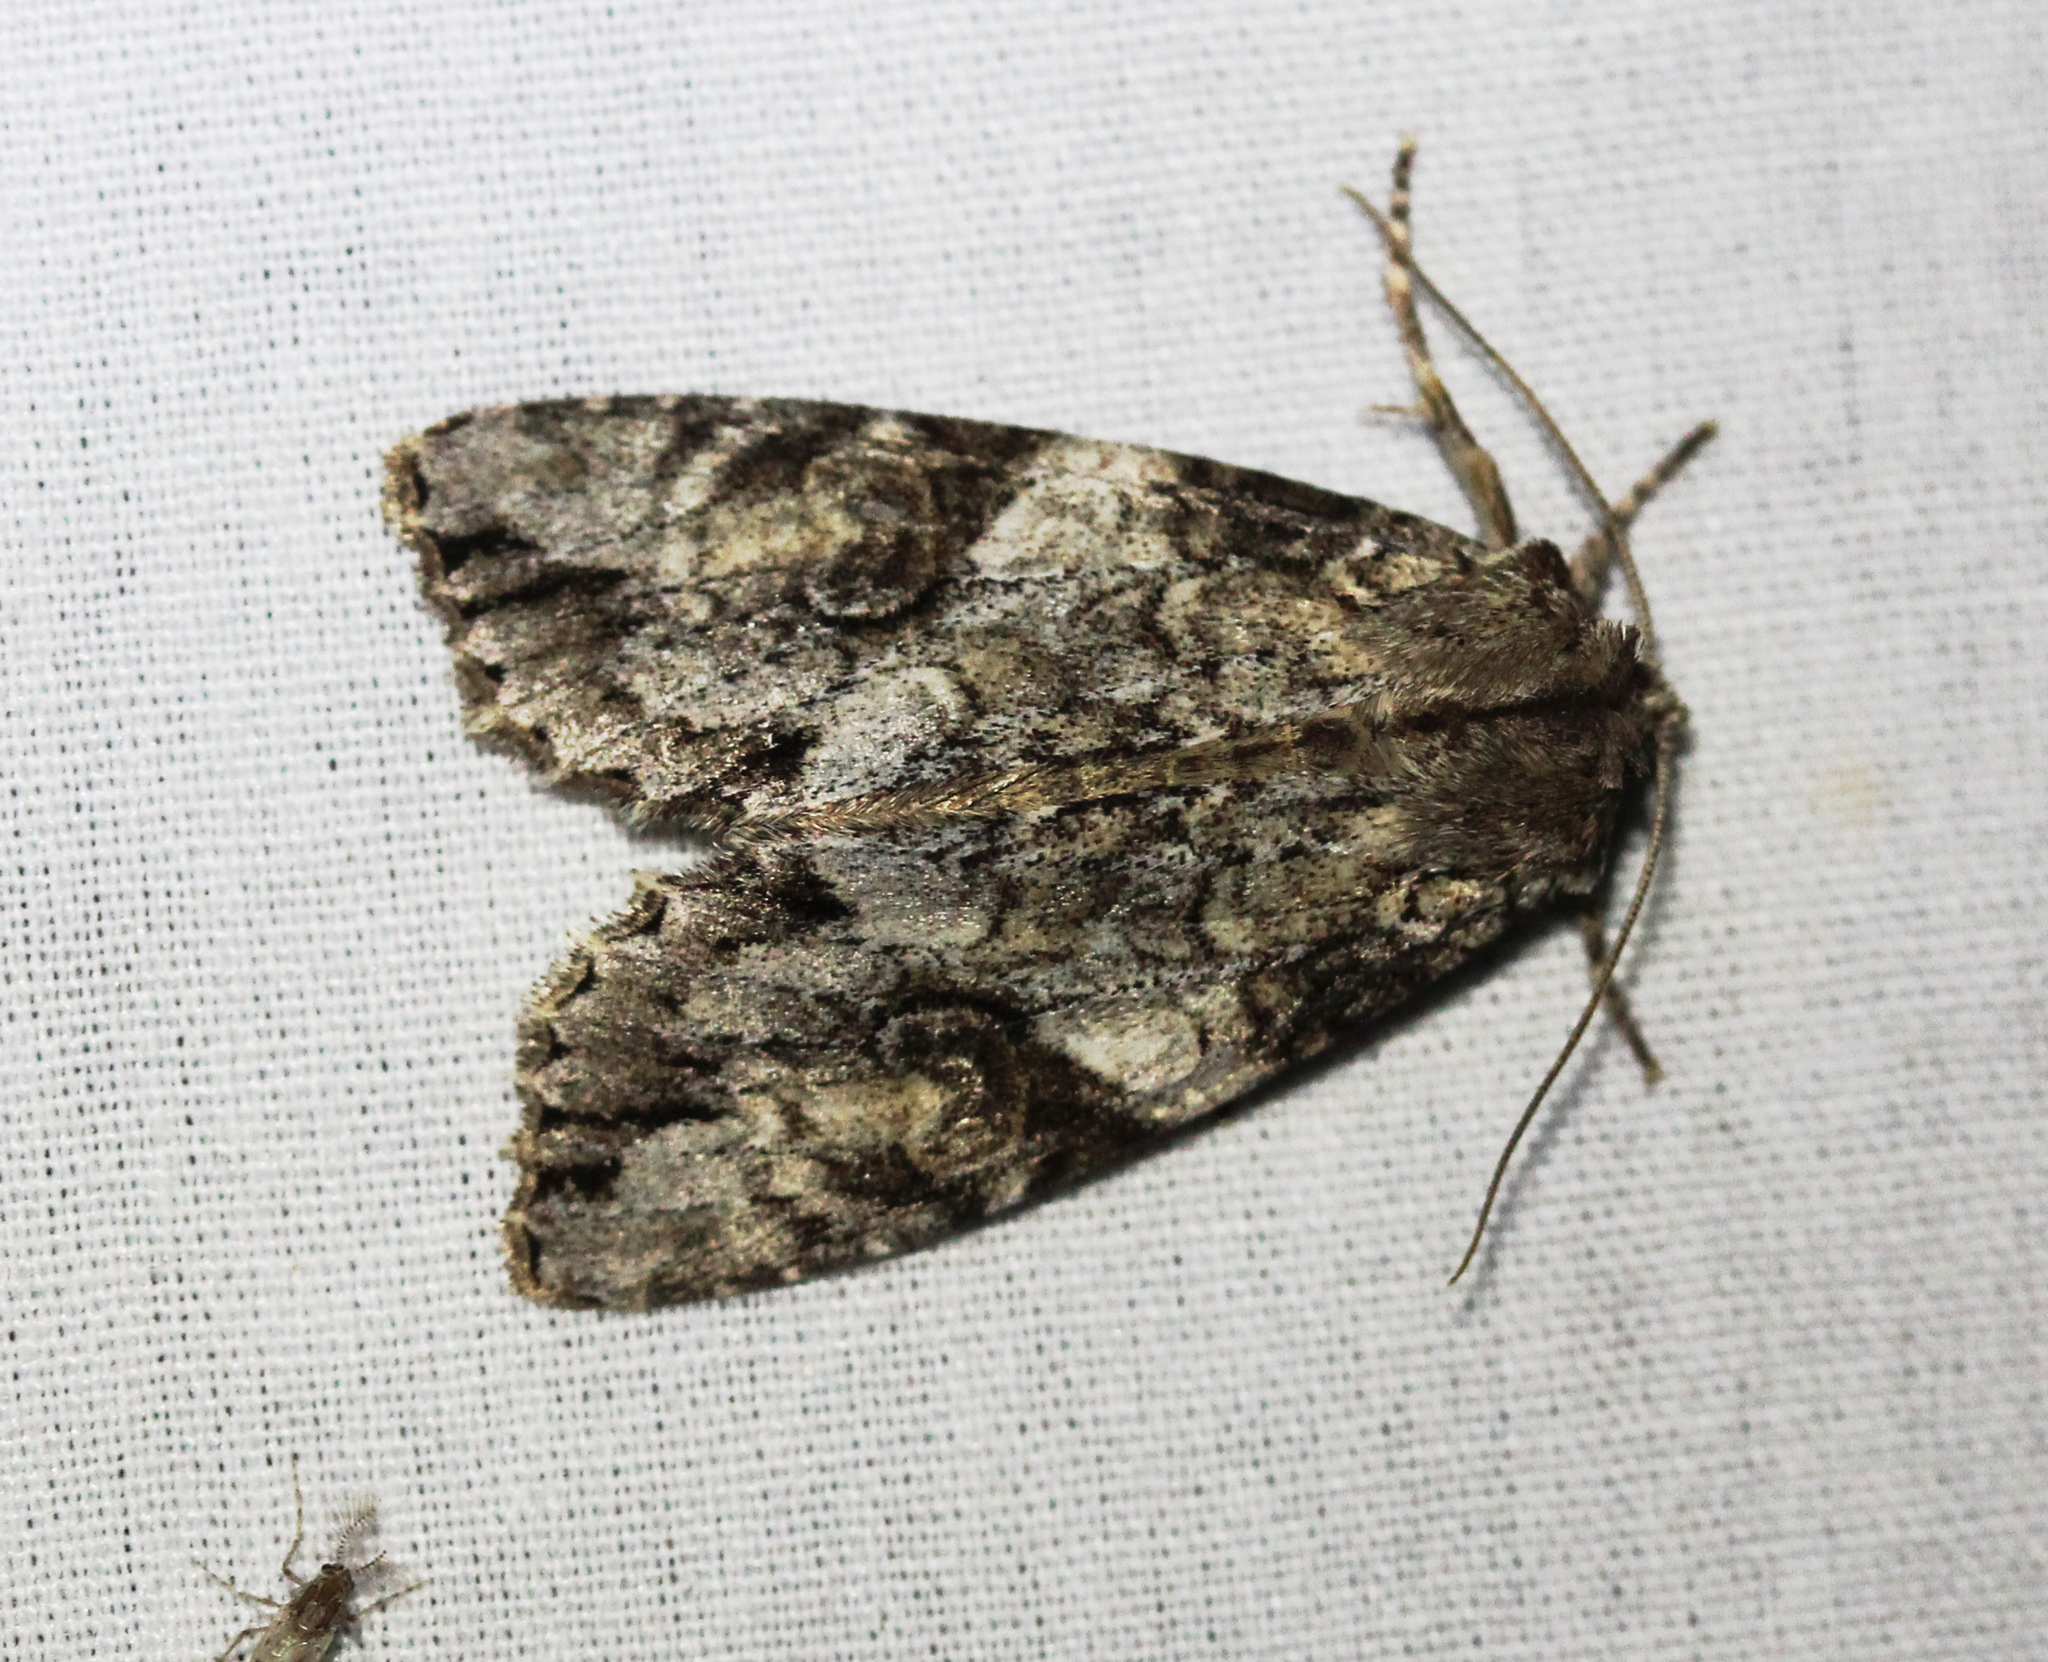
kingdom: Animalia
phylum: Arthropoda
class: Insecta
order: Lepidoptera
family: Noctuidae
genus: Achatia
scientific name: Achatia latex
